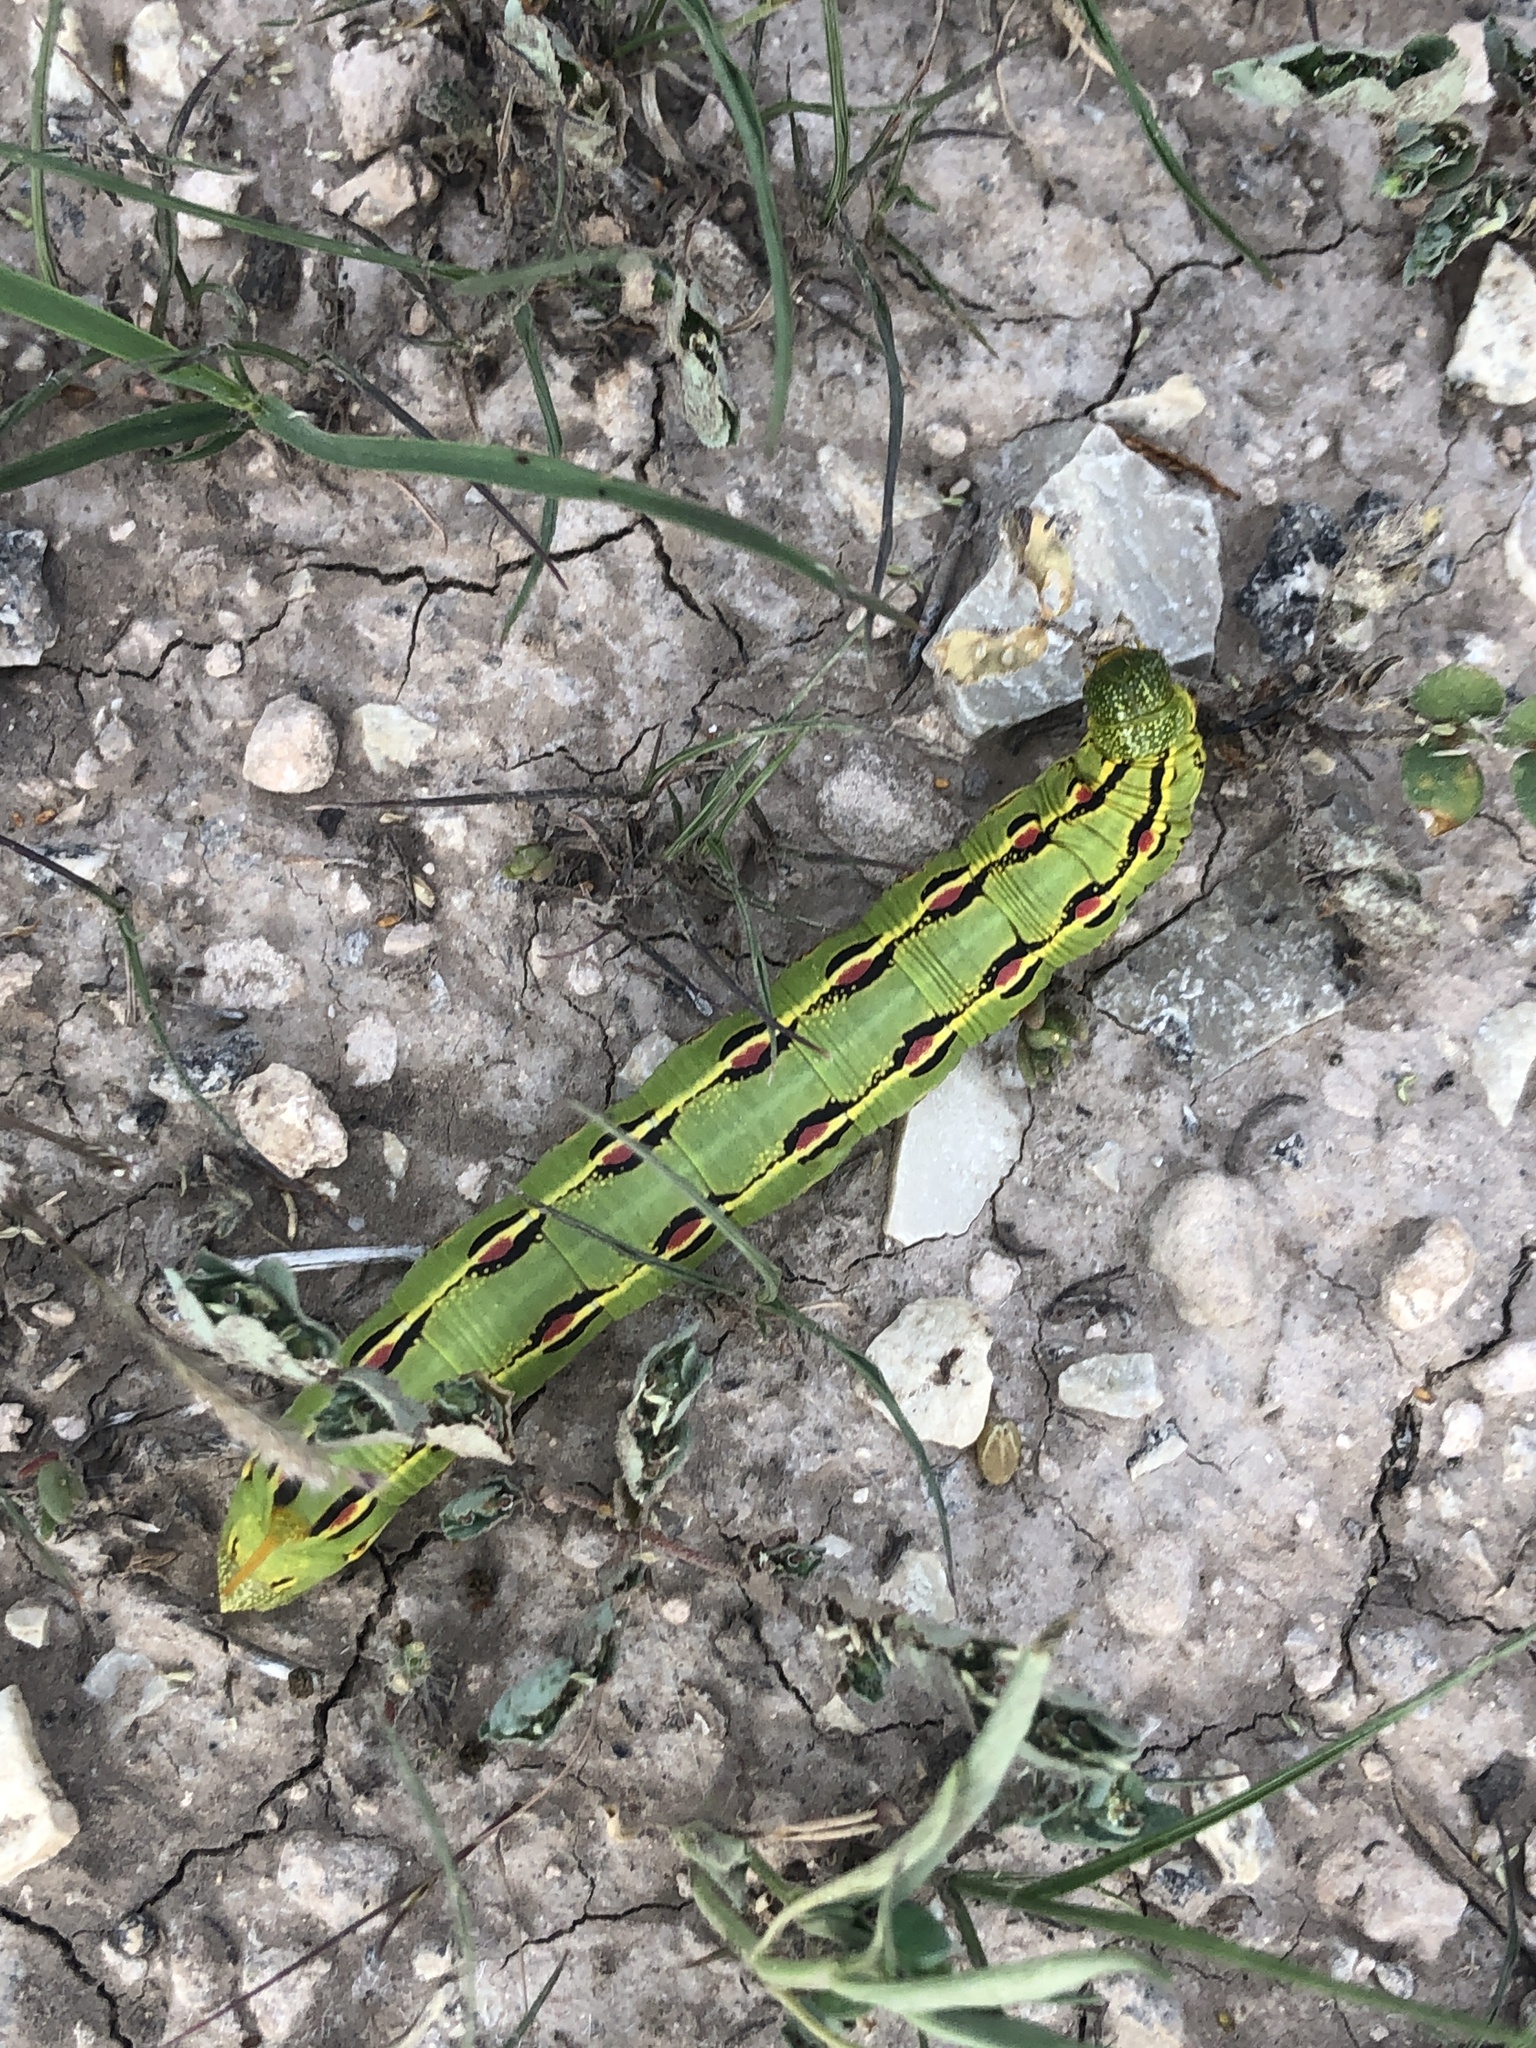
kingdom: Animalia
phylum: Arthropoda
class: Insecta
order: Lepidoptera
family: Sphingidae
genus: Hyles
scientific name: Hyles lineata
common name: White-lined sphinx
